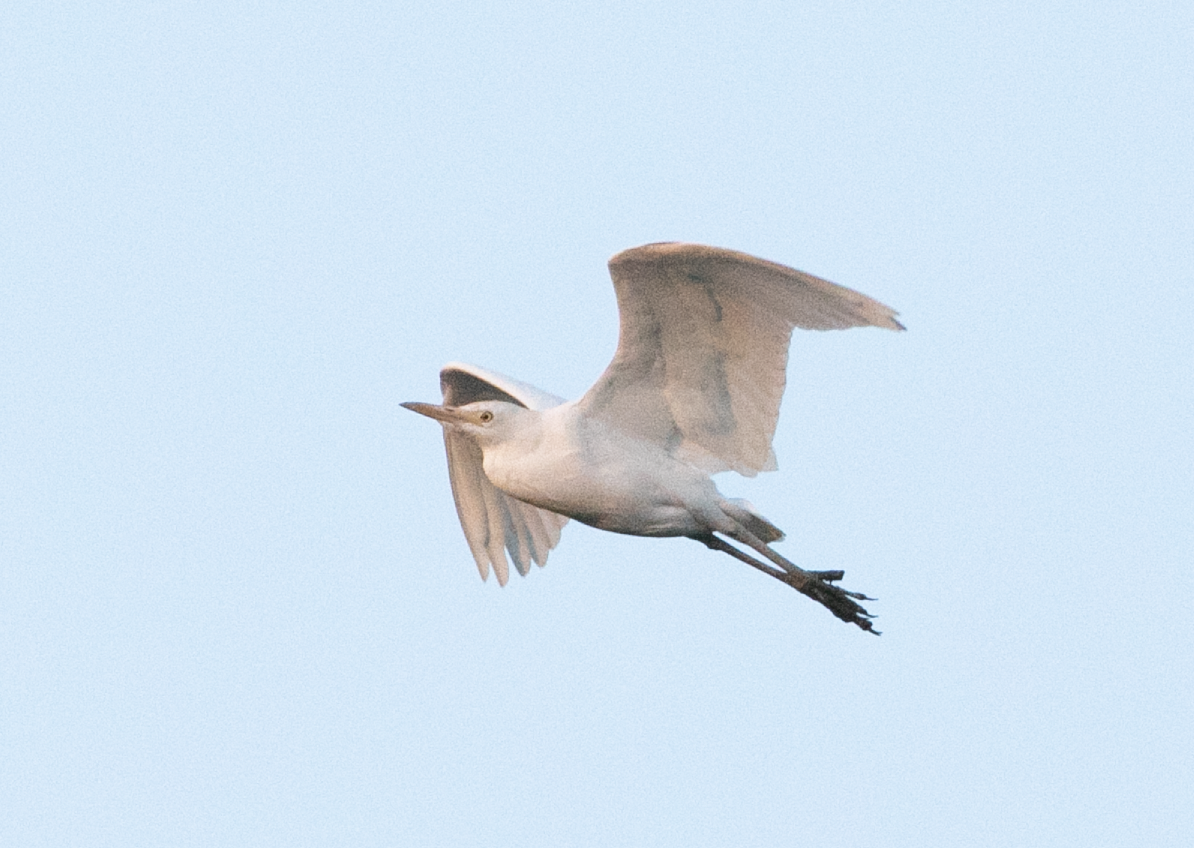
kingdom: Animalia
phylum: Chordata
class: Aves
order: Pelecaniformes
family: Ardeidae
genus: Bubulcus
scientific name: Bubulcus ibis
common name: Cattle egret
